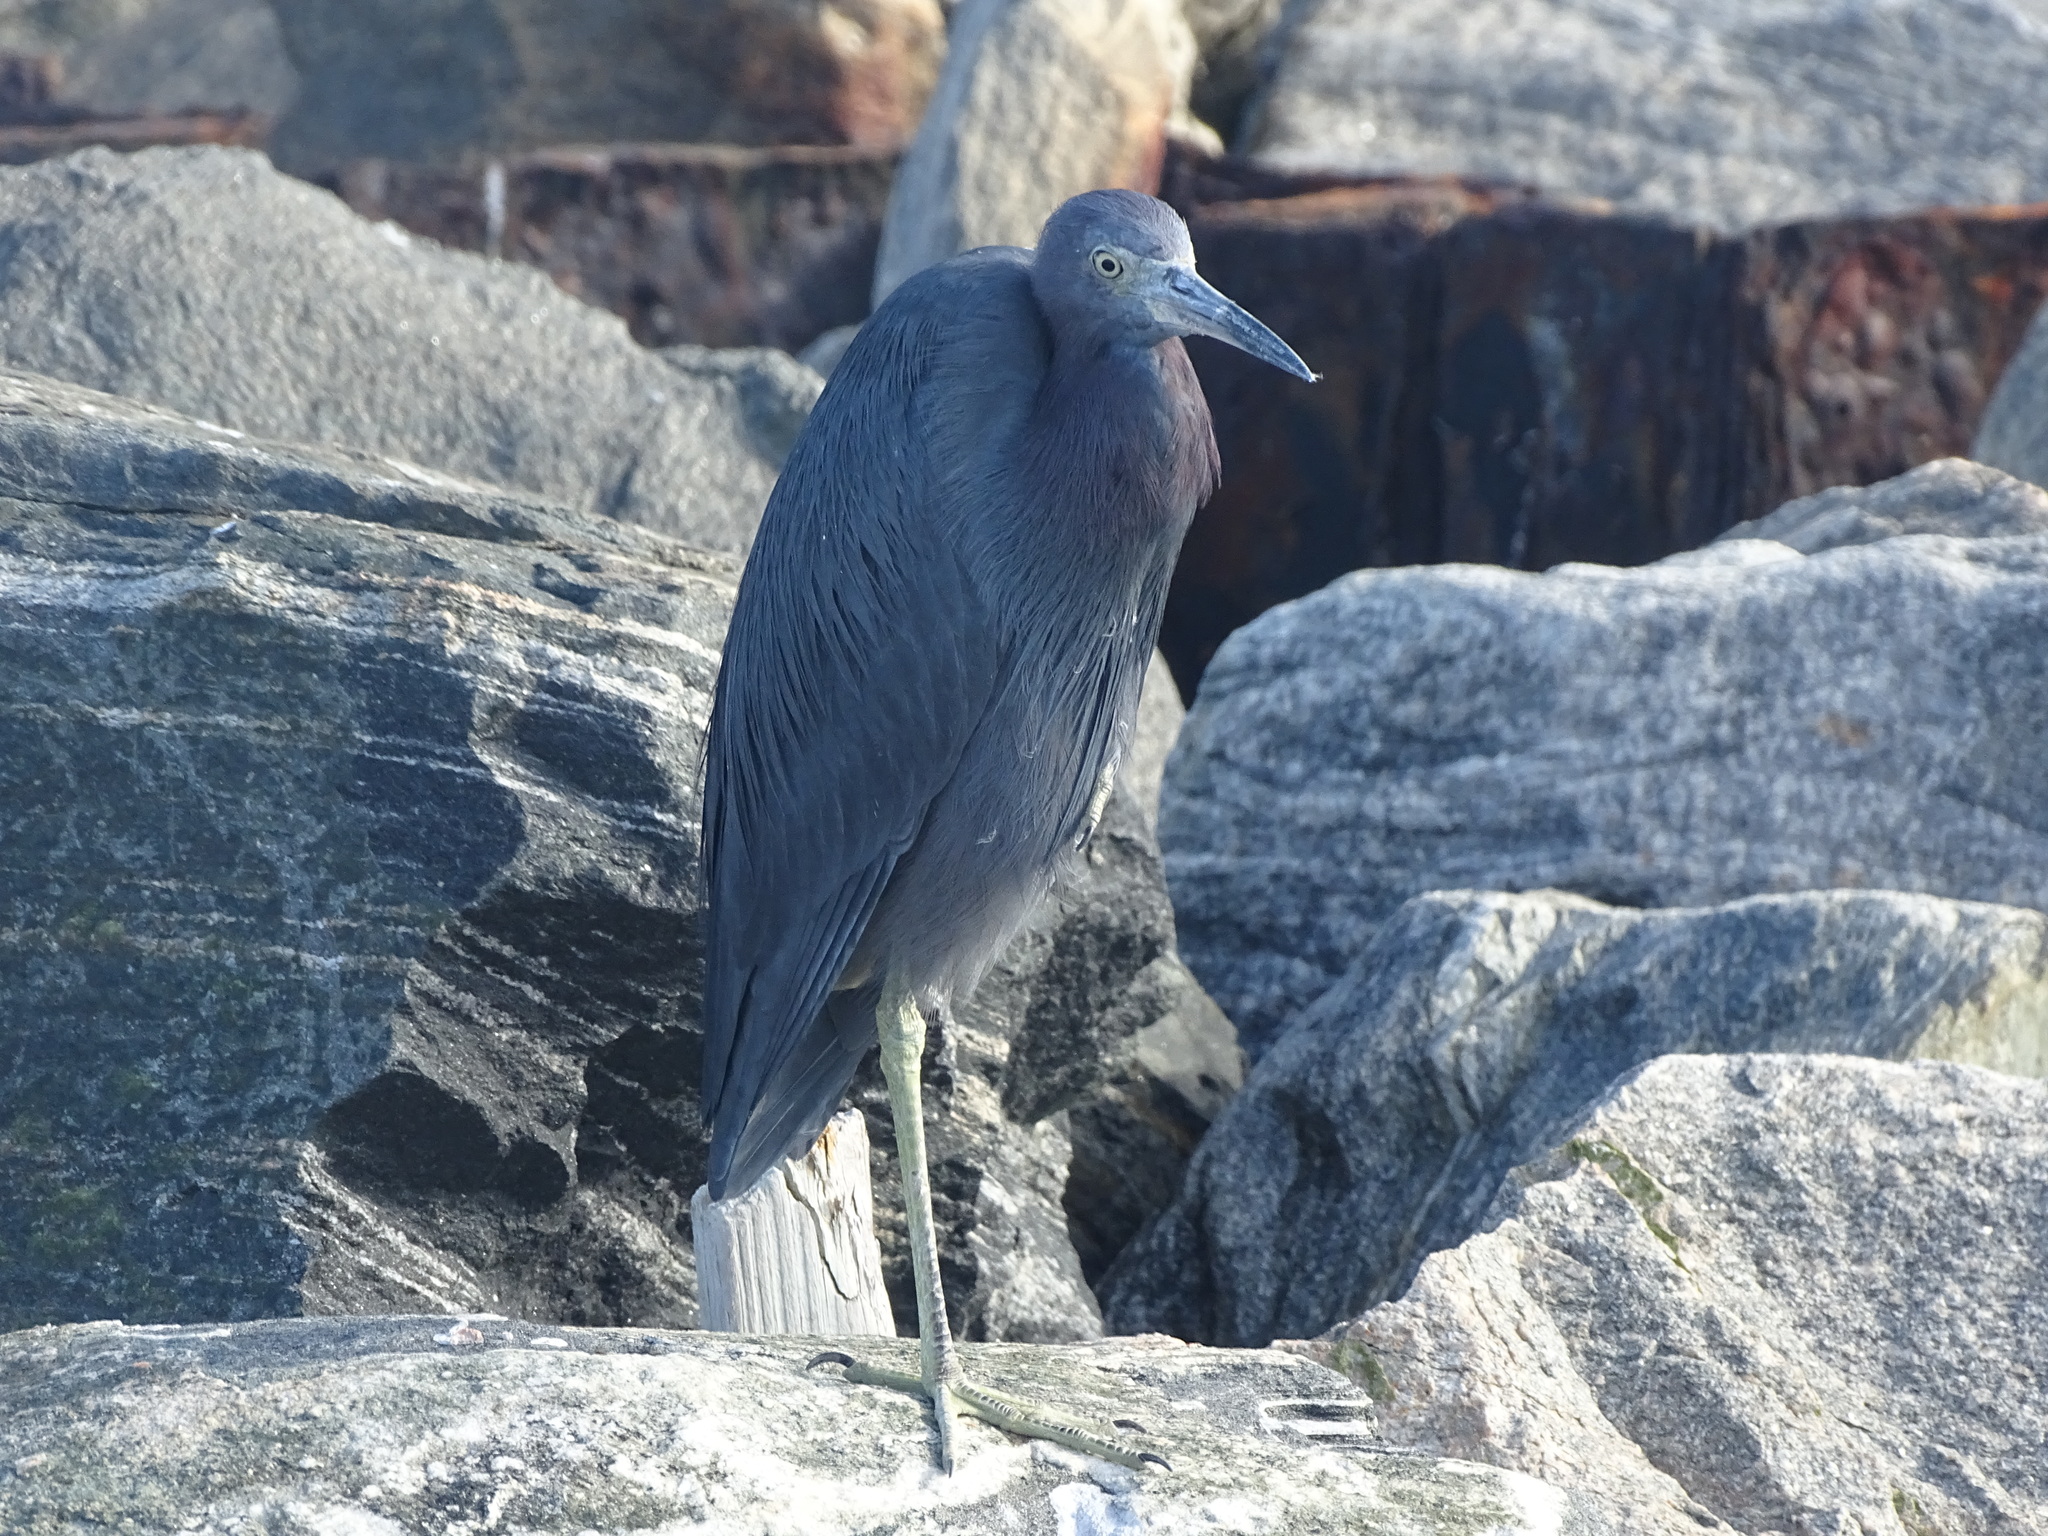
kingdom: Animalia
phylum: Chordata
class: Aves
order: Pelecaniformes
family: Ardeidae
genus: Egretta
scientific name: Egretta caerulea
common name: Little blue heron
